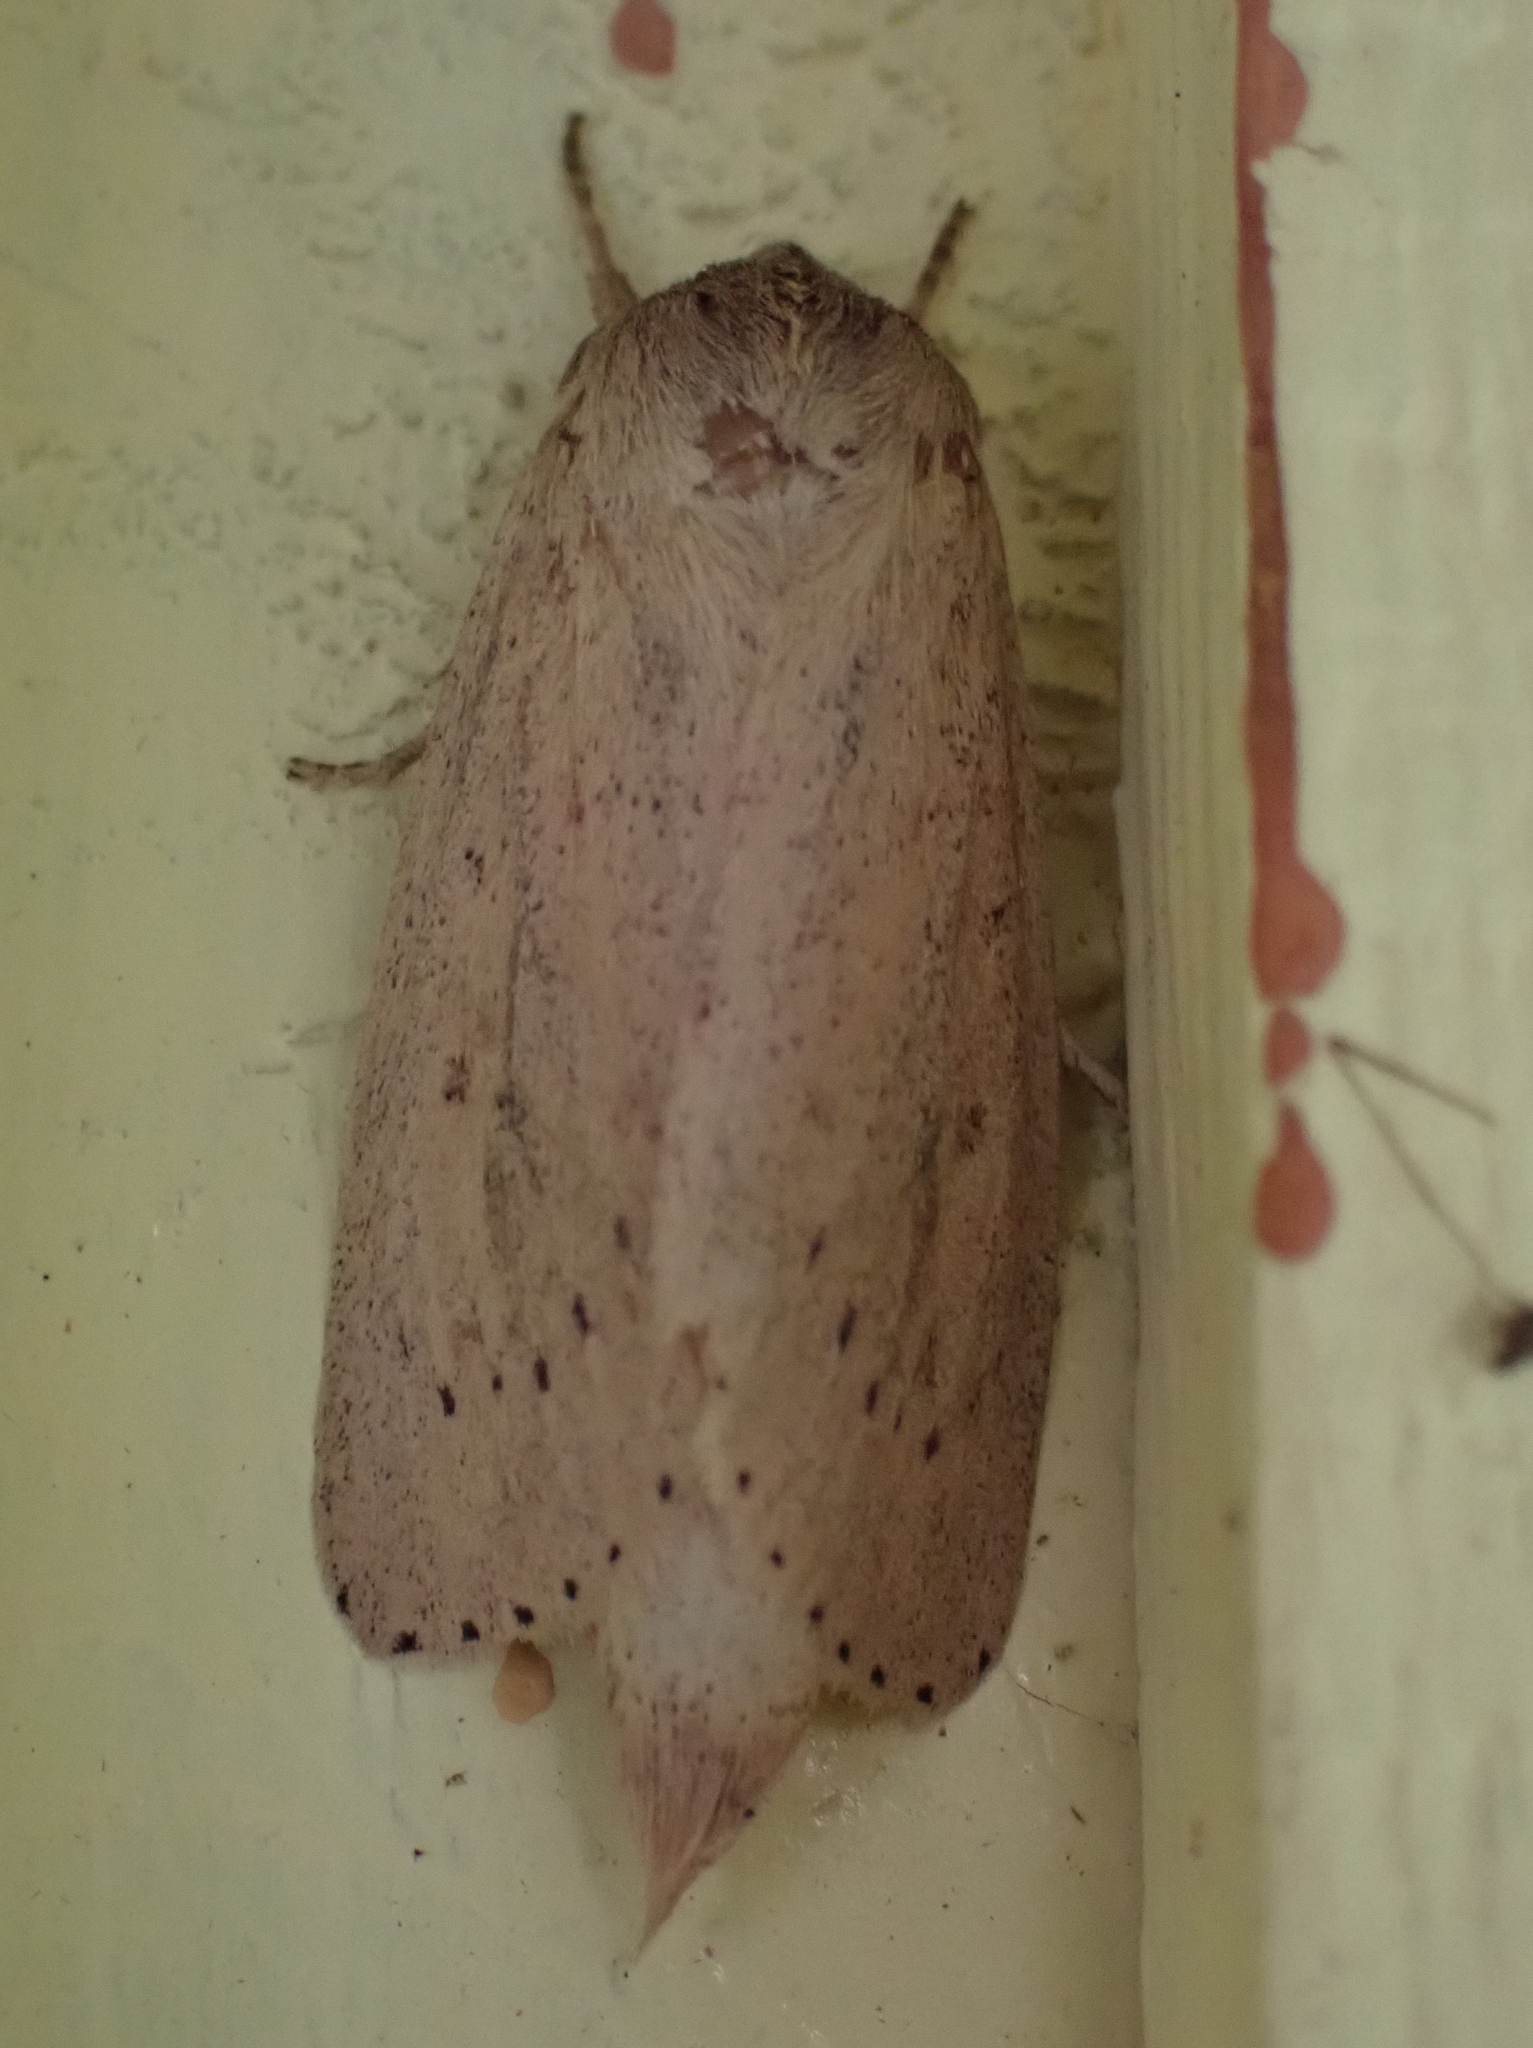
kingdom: Animalia
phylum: Arthropoda
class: Insecta
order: Lepidoptera
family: Noctuidae
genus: Globia
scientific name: Globia oblonga
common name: Oblong sedge borer moth
